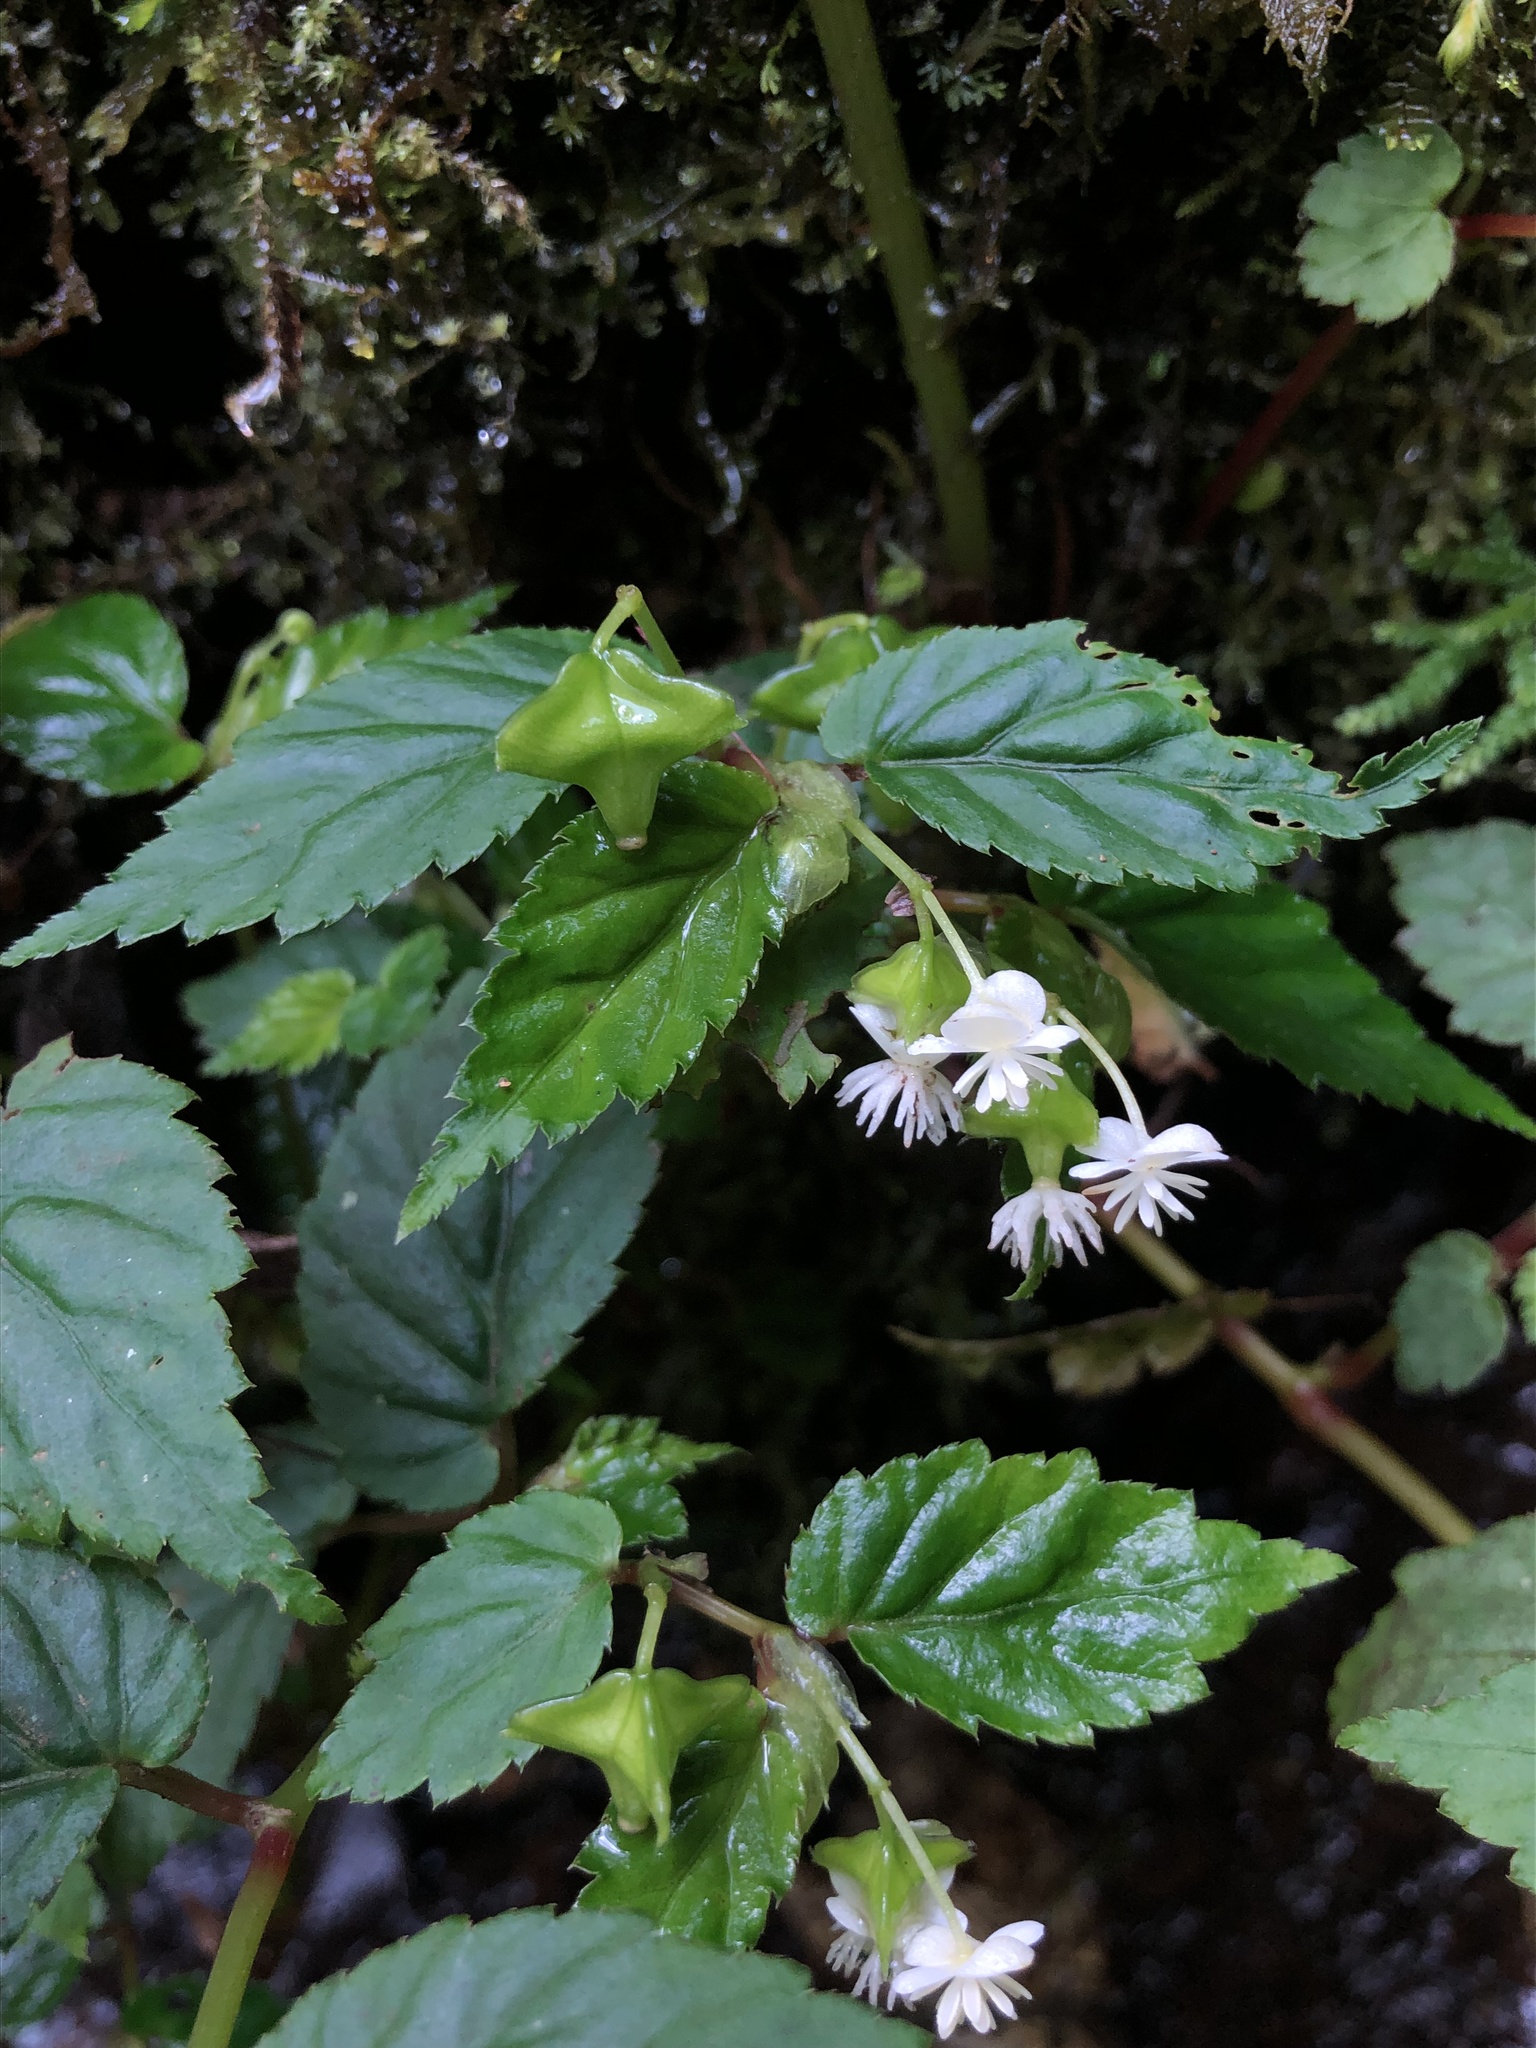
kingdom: Plantae
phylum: Tracheophyta
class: Magnoliopsida
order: Cucurbitales
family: Begoniaceae
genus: Begonia
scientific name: Begonia urticae
